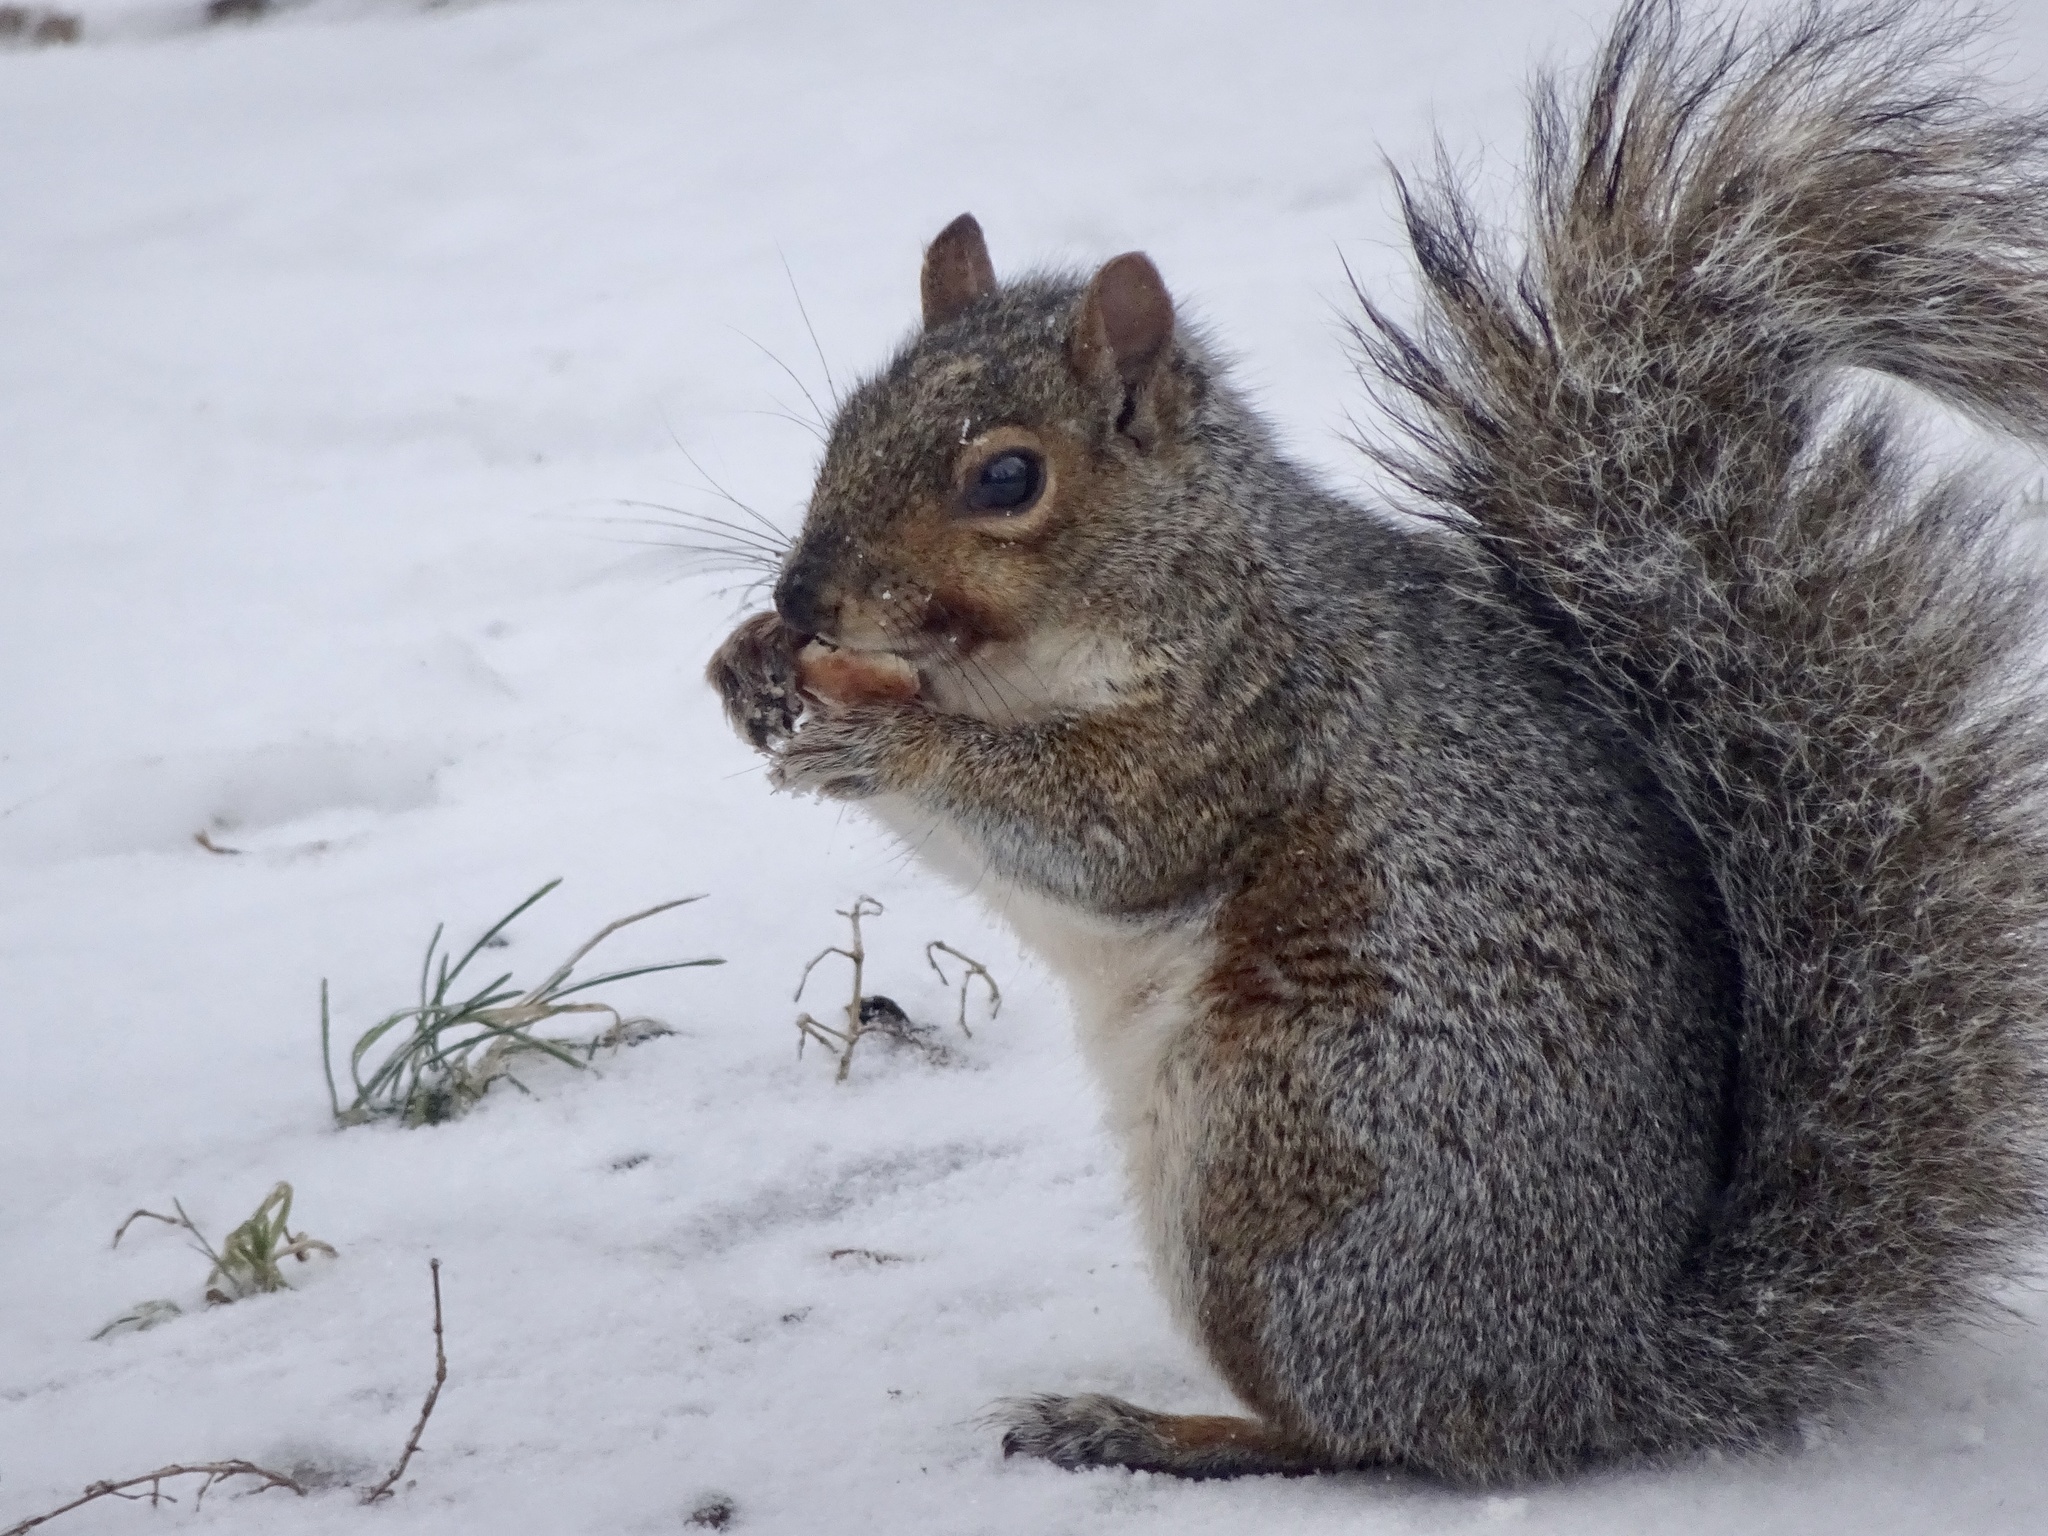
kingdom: Animalia
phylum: Chordata
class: Mammalia
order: Rodentia
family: Sciuridae
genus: Sciurus
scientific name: Sciurus carolinensis
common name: Eastern gray squirrel
